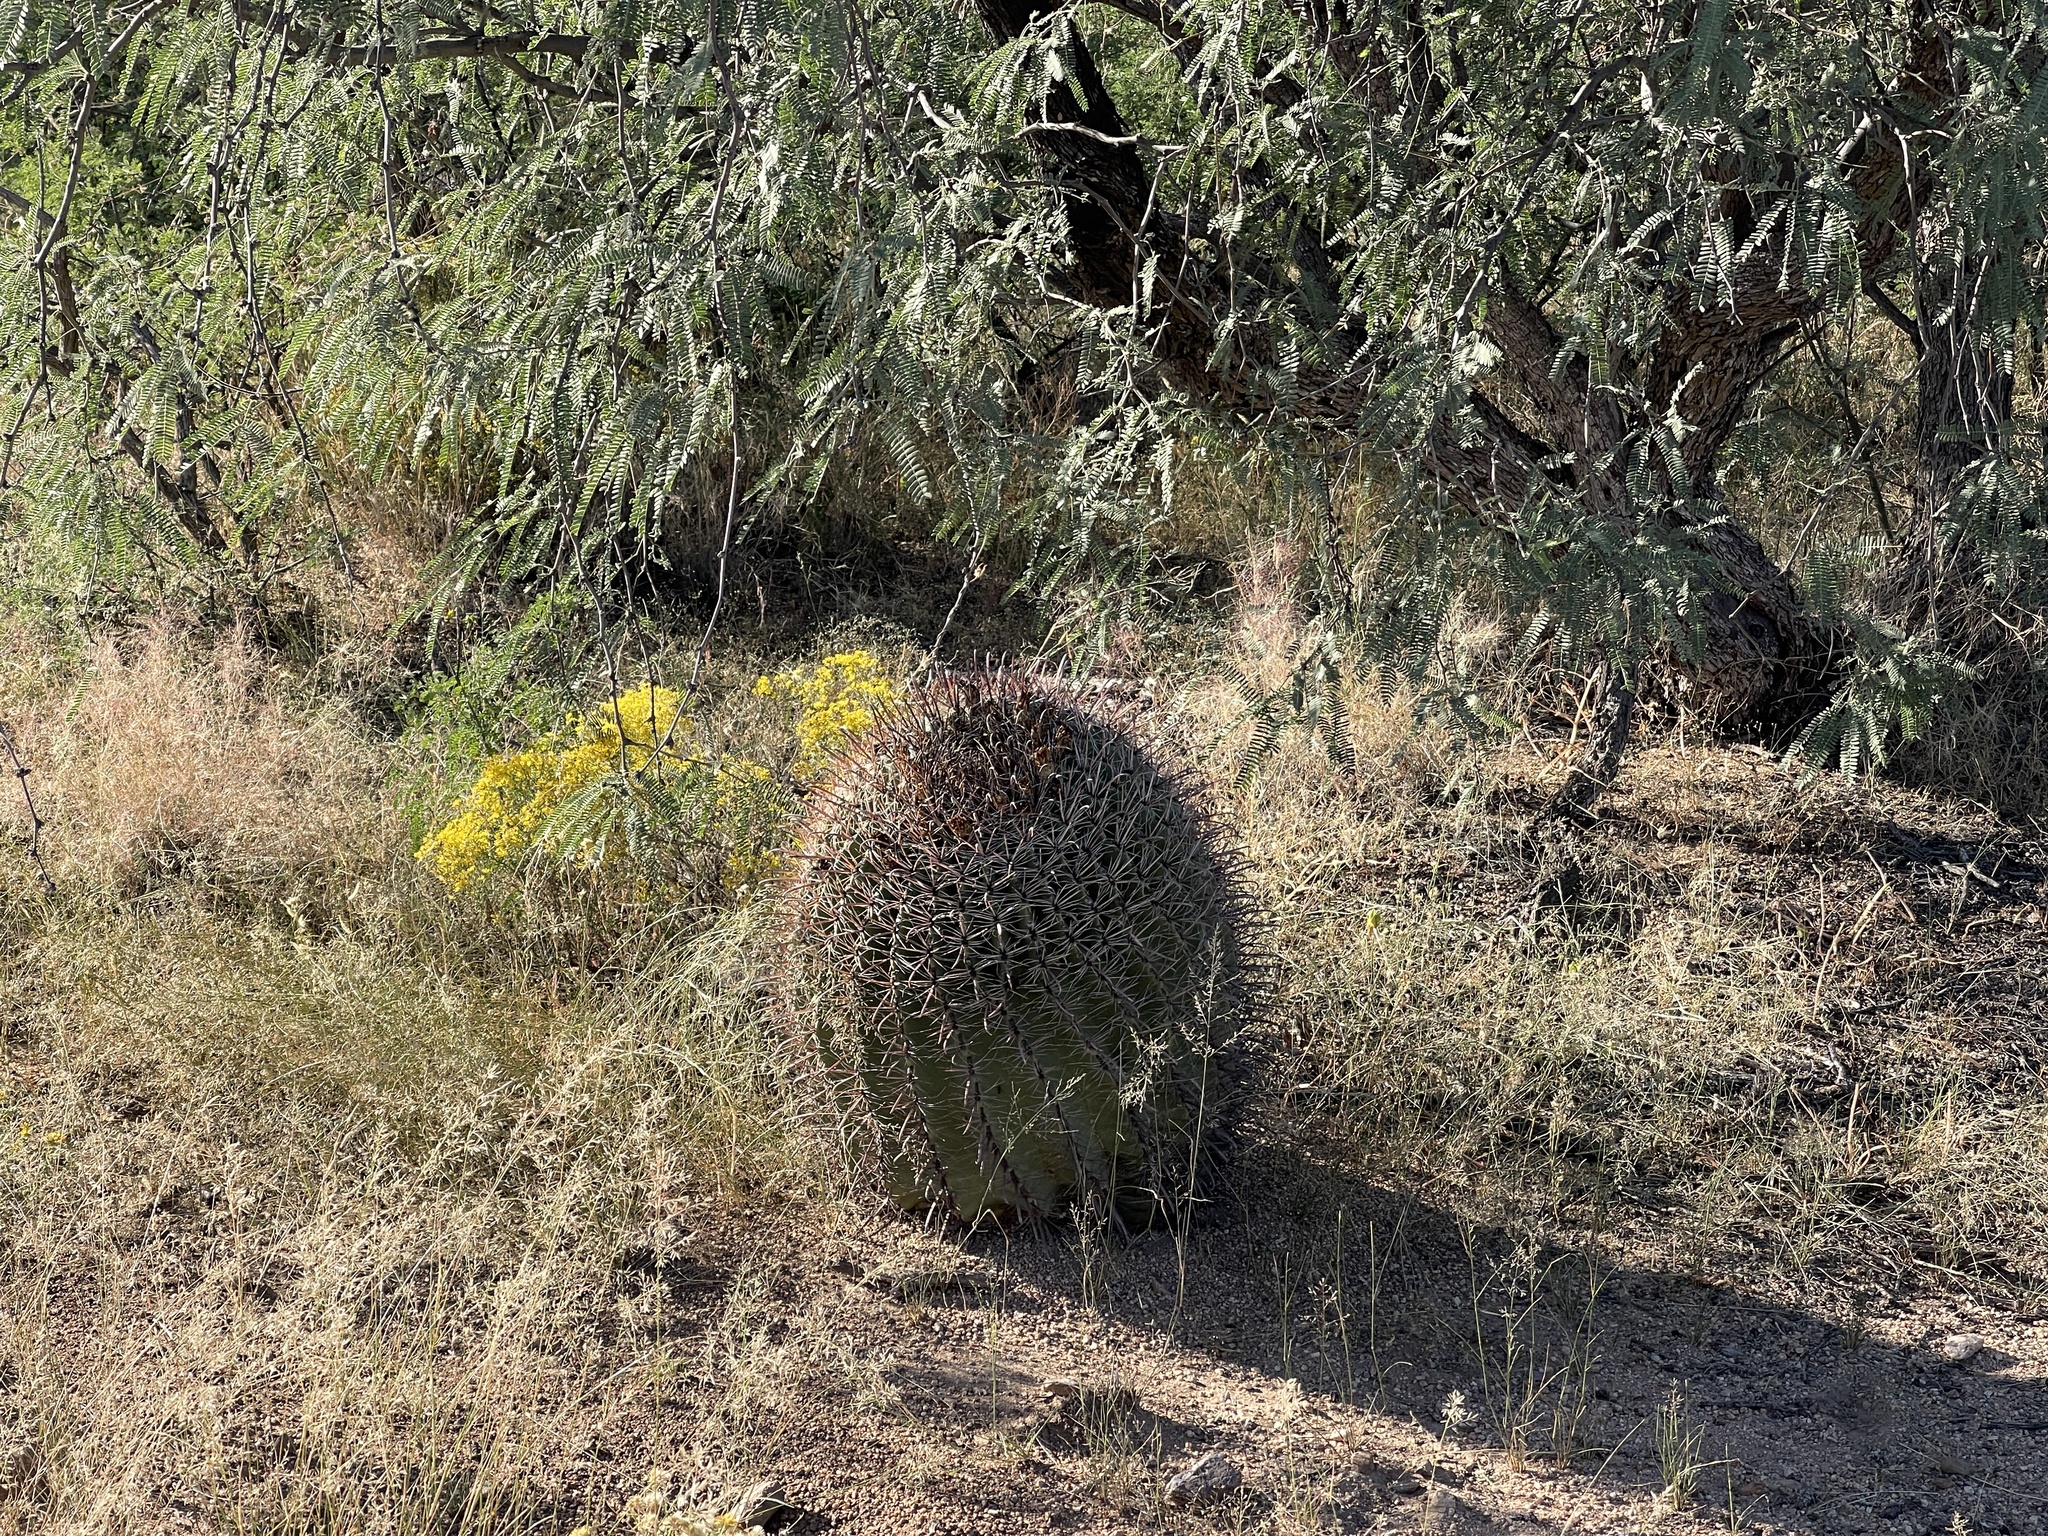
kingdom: Plantae
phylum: Tracheophyta
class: Magnoliopsida
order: Caryophyllales
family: Cactaceae
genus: Ferocactus
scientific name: Ferocactus wislizeni
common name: Candy barrel cactus
